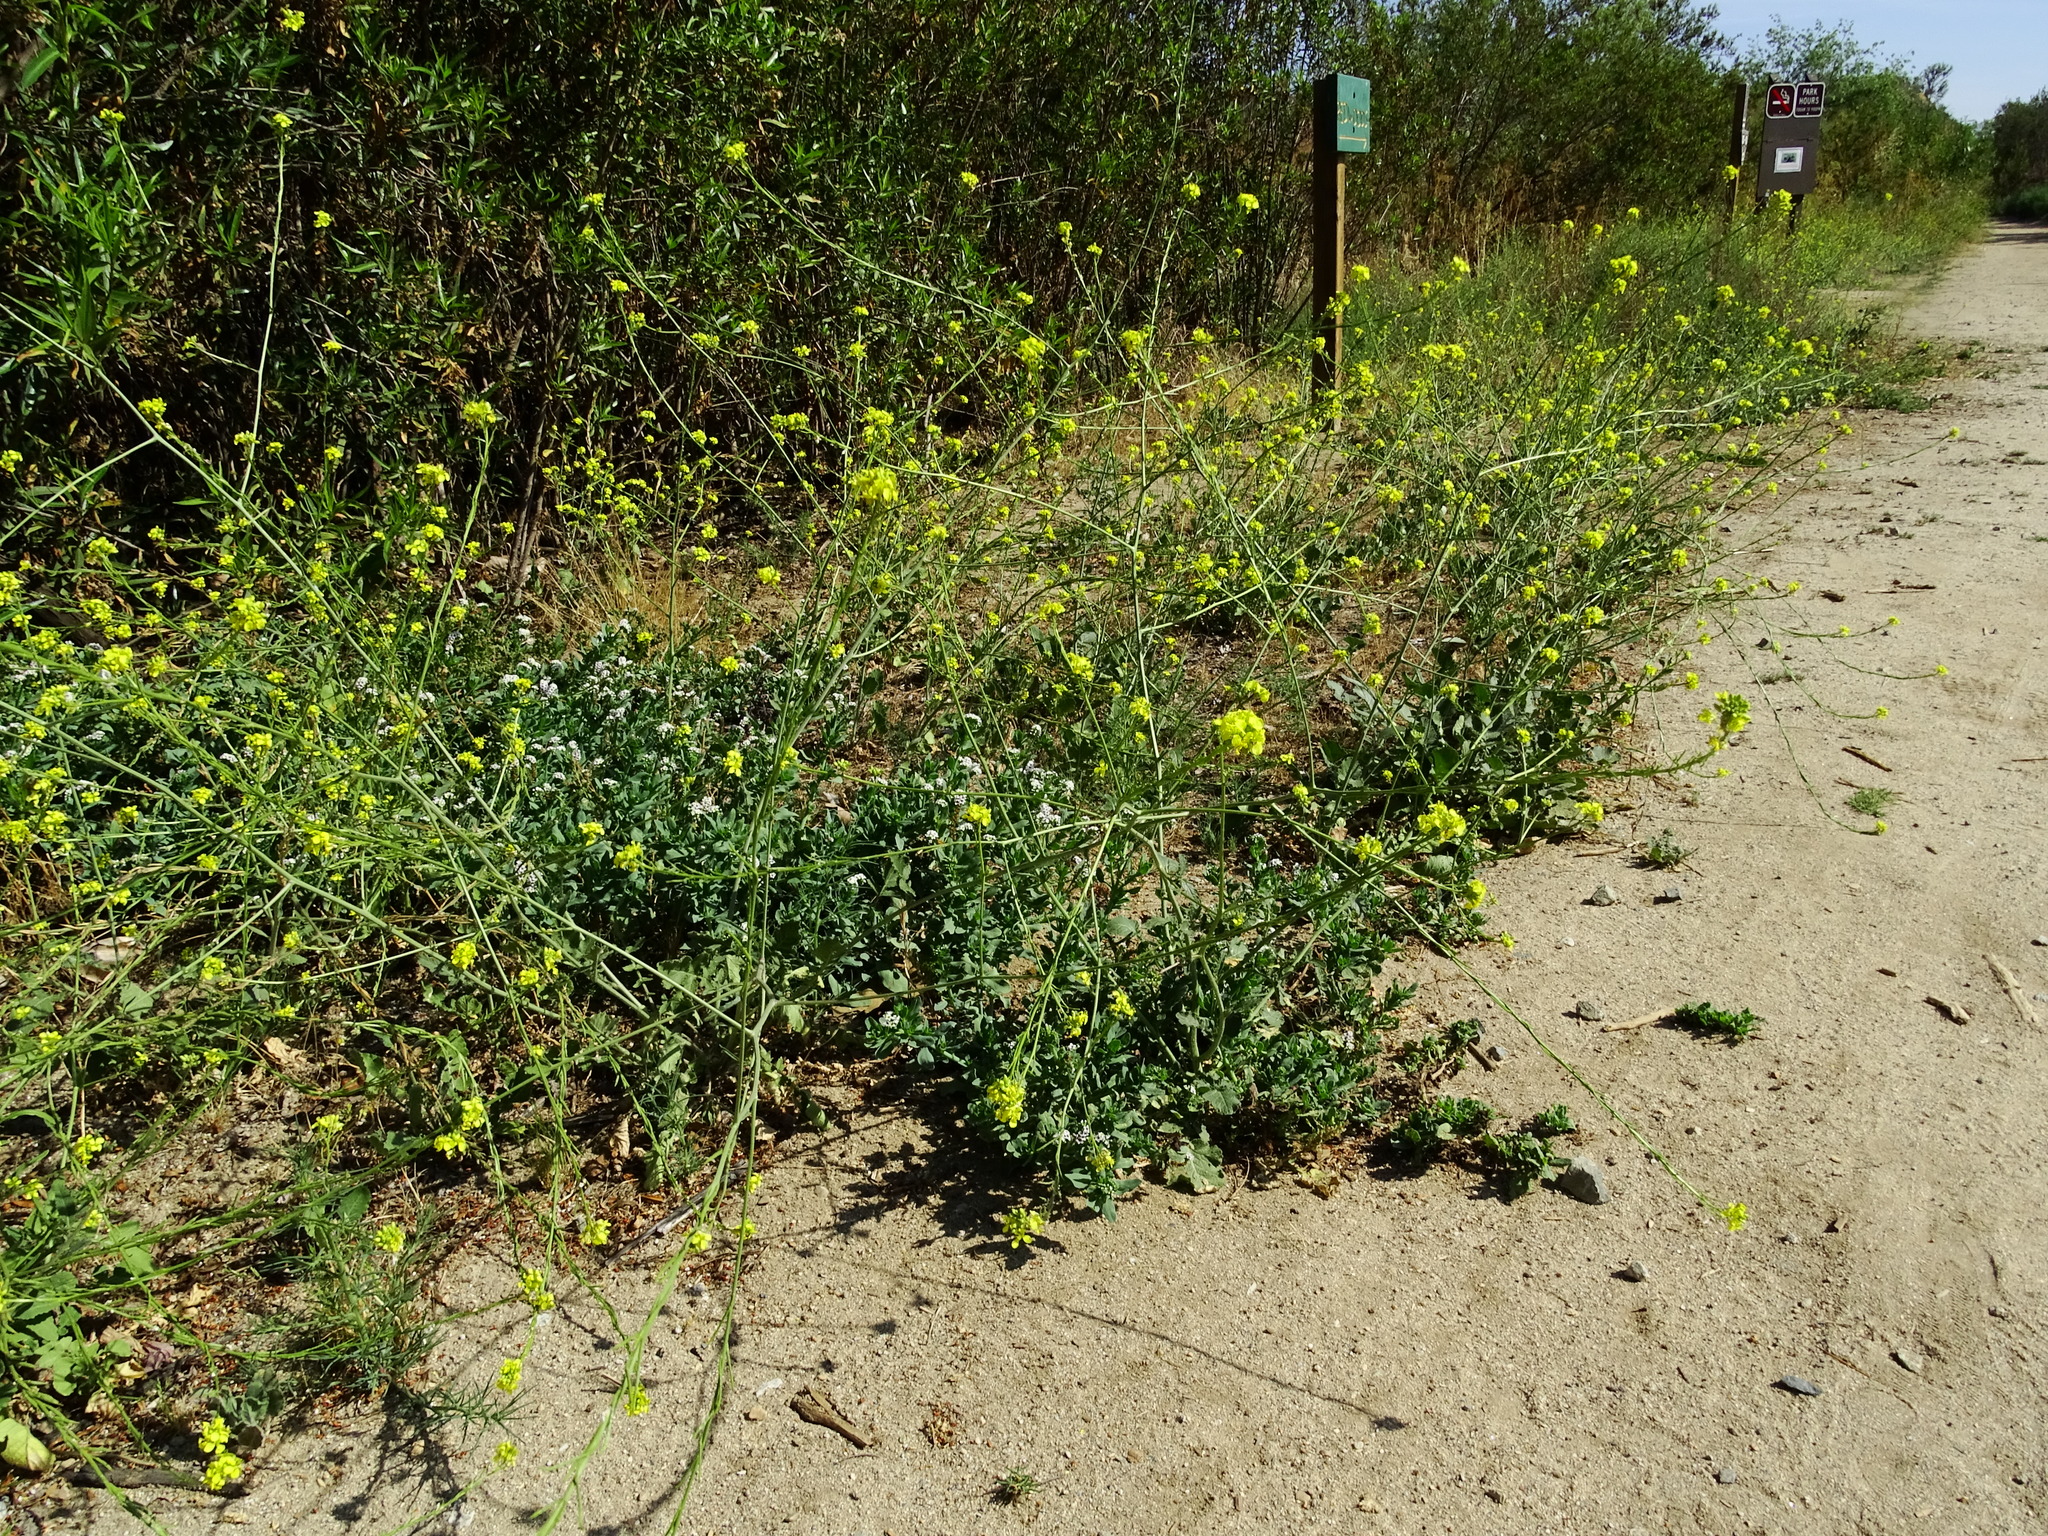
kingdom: Plantae
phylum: Tracheophyta
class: Magnoliopsida
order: Brassicales
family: Brassicaceae
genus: Hirschfeldia
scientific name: Hirschfeldia incana
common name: Hoary mustard
